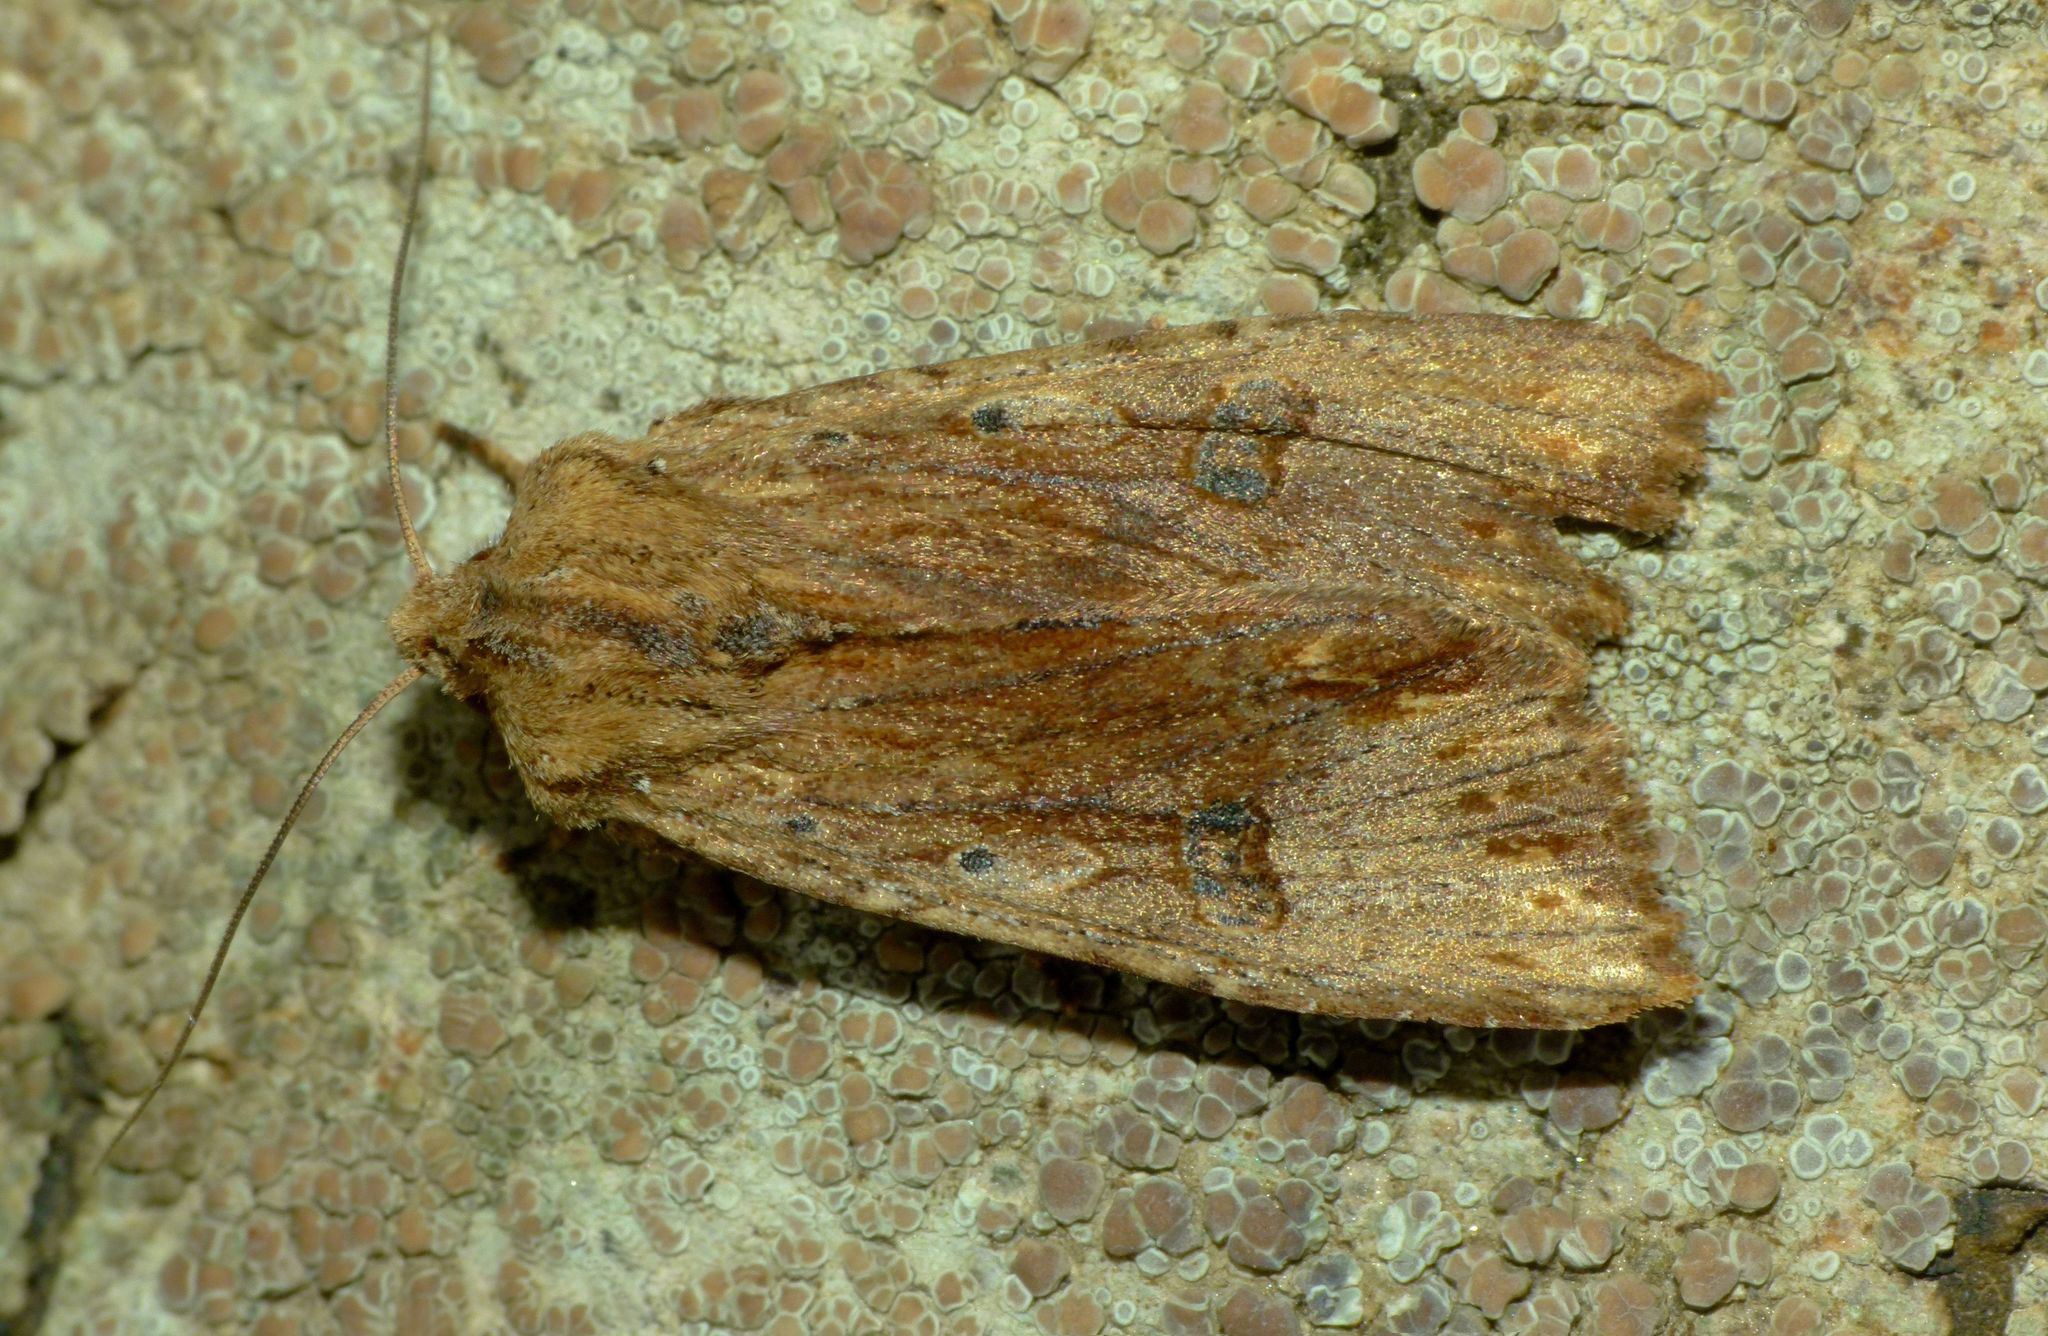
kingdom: Animalia
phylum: Arthropoda
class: Insecta
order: Lepidoptera
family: Noctuidae
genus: Ichneutica
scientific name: Ichneutica
